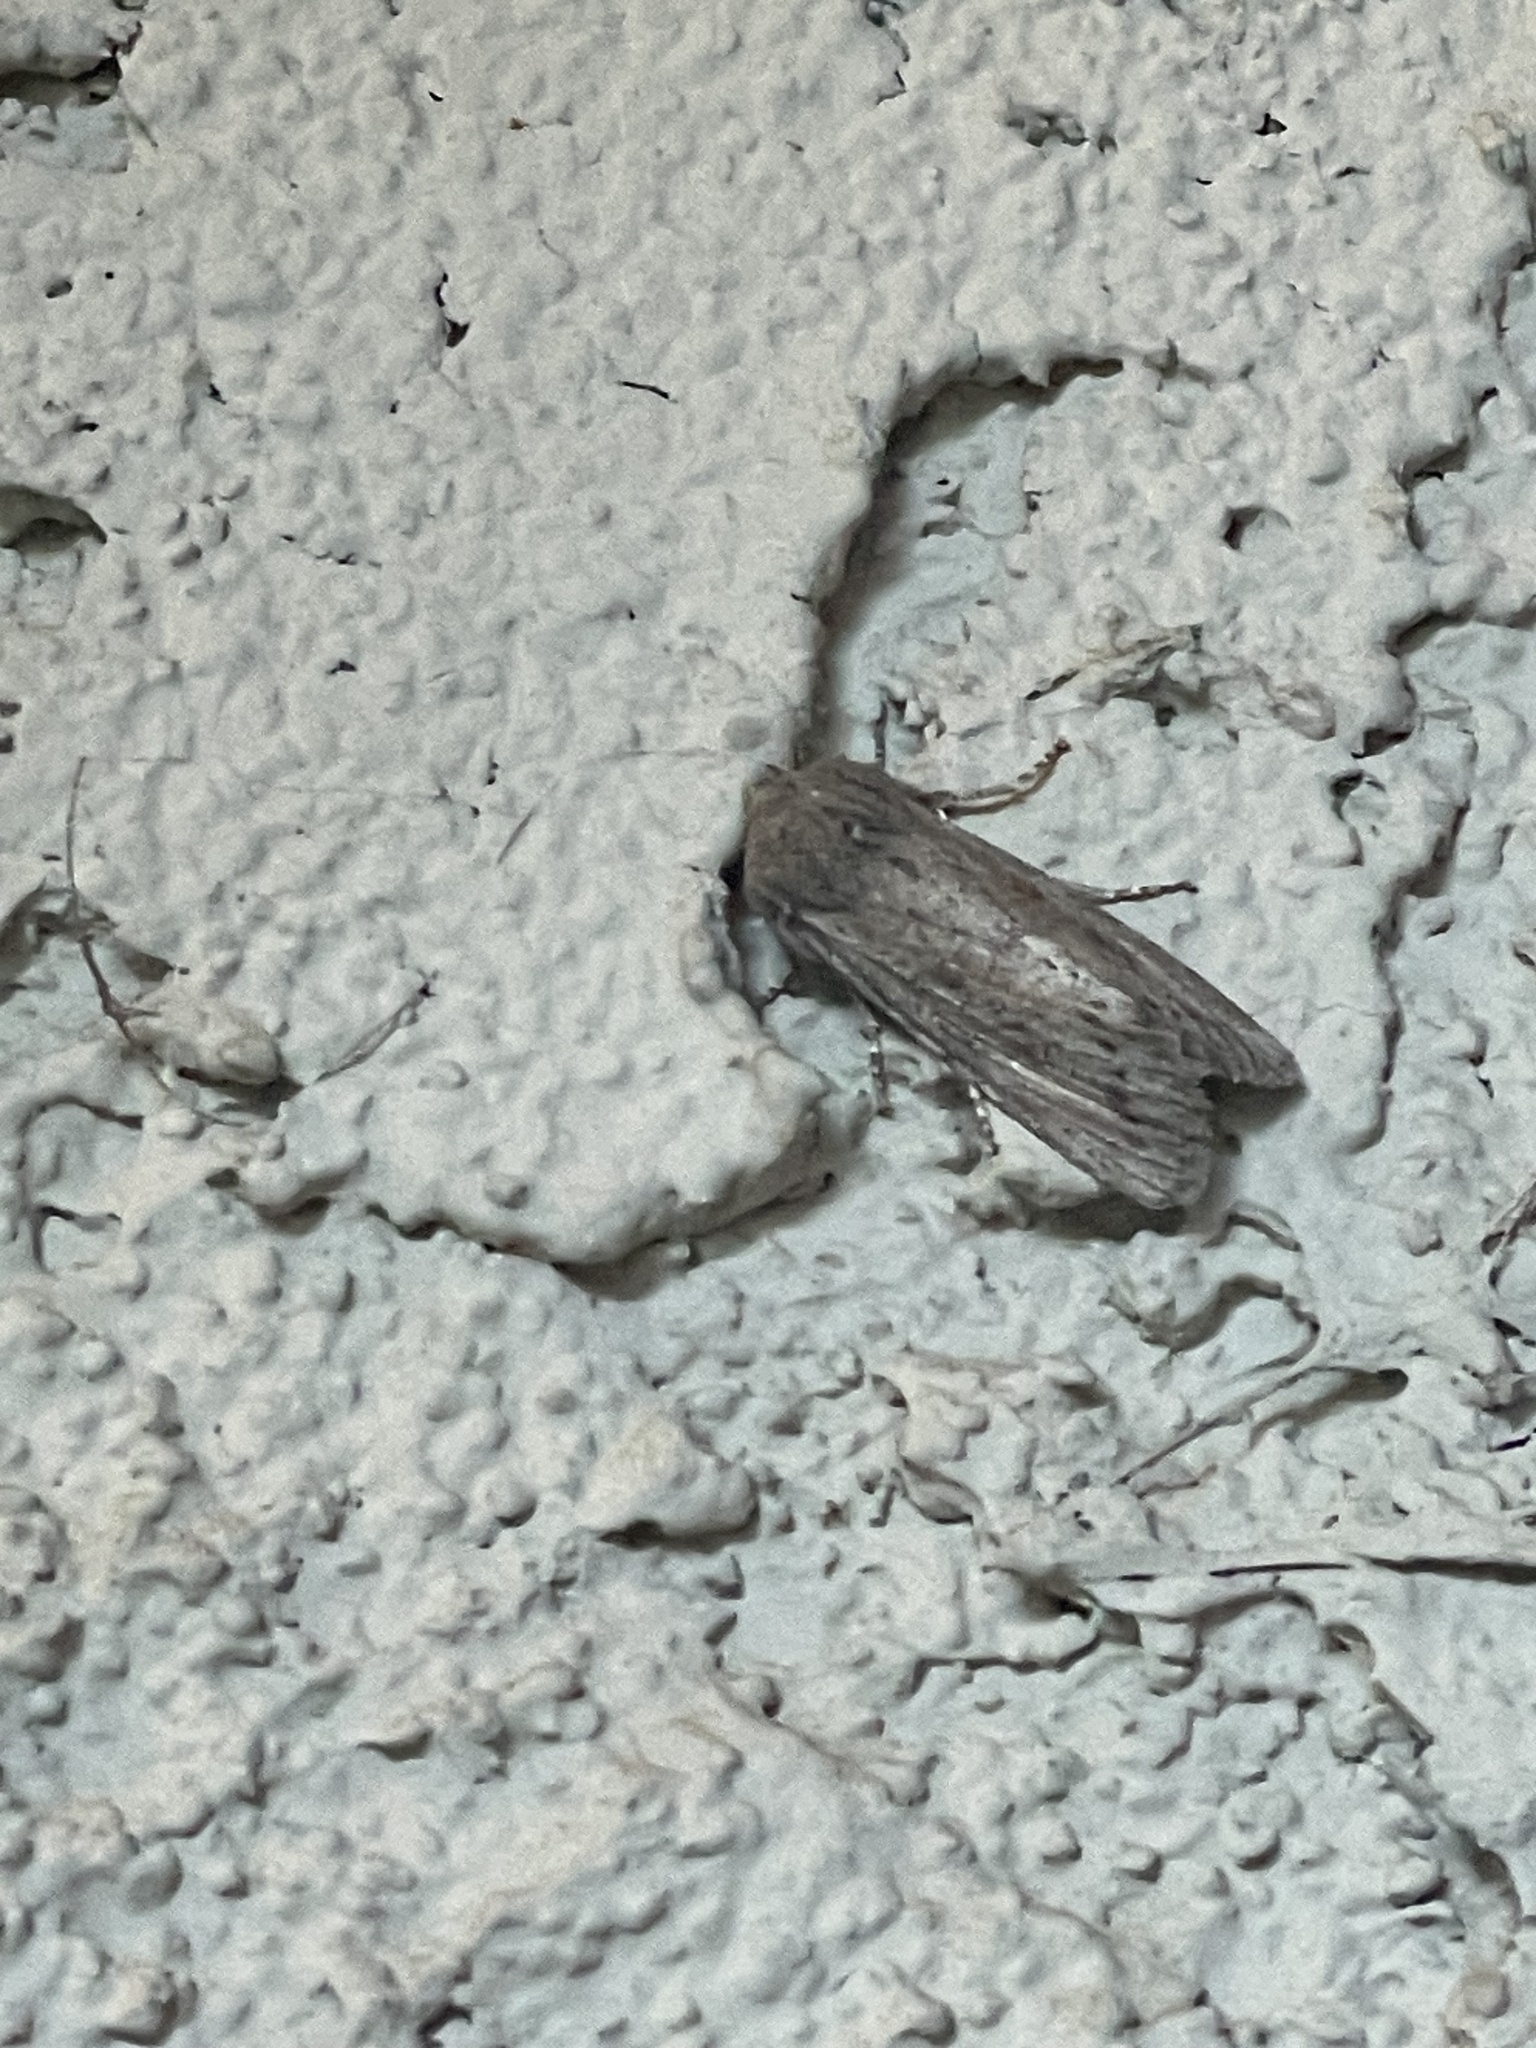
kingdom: Animalia
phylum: Arthropoda
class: Insecta
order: Lepidoptera
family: Noctuidae
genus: Egira
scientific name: Egira curialis
